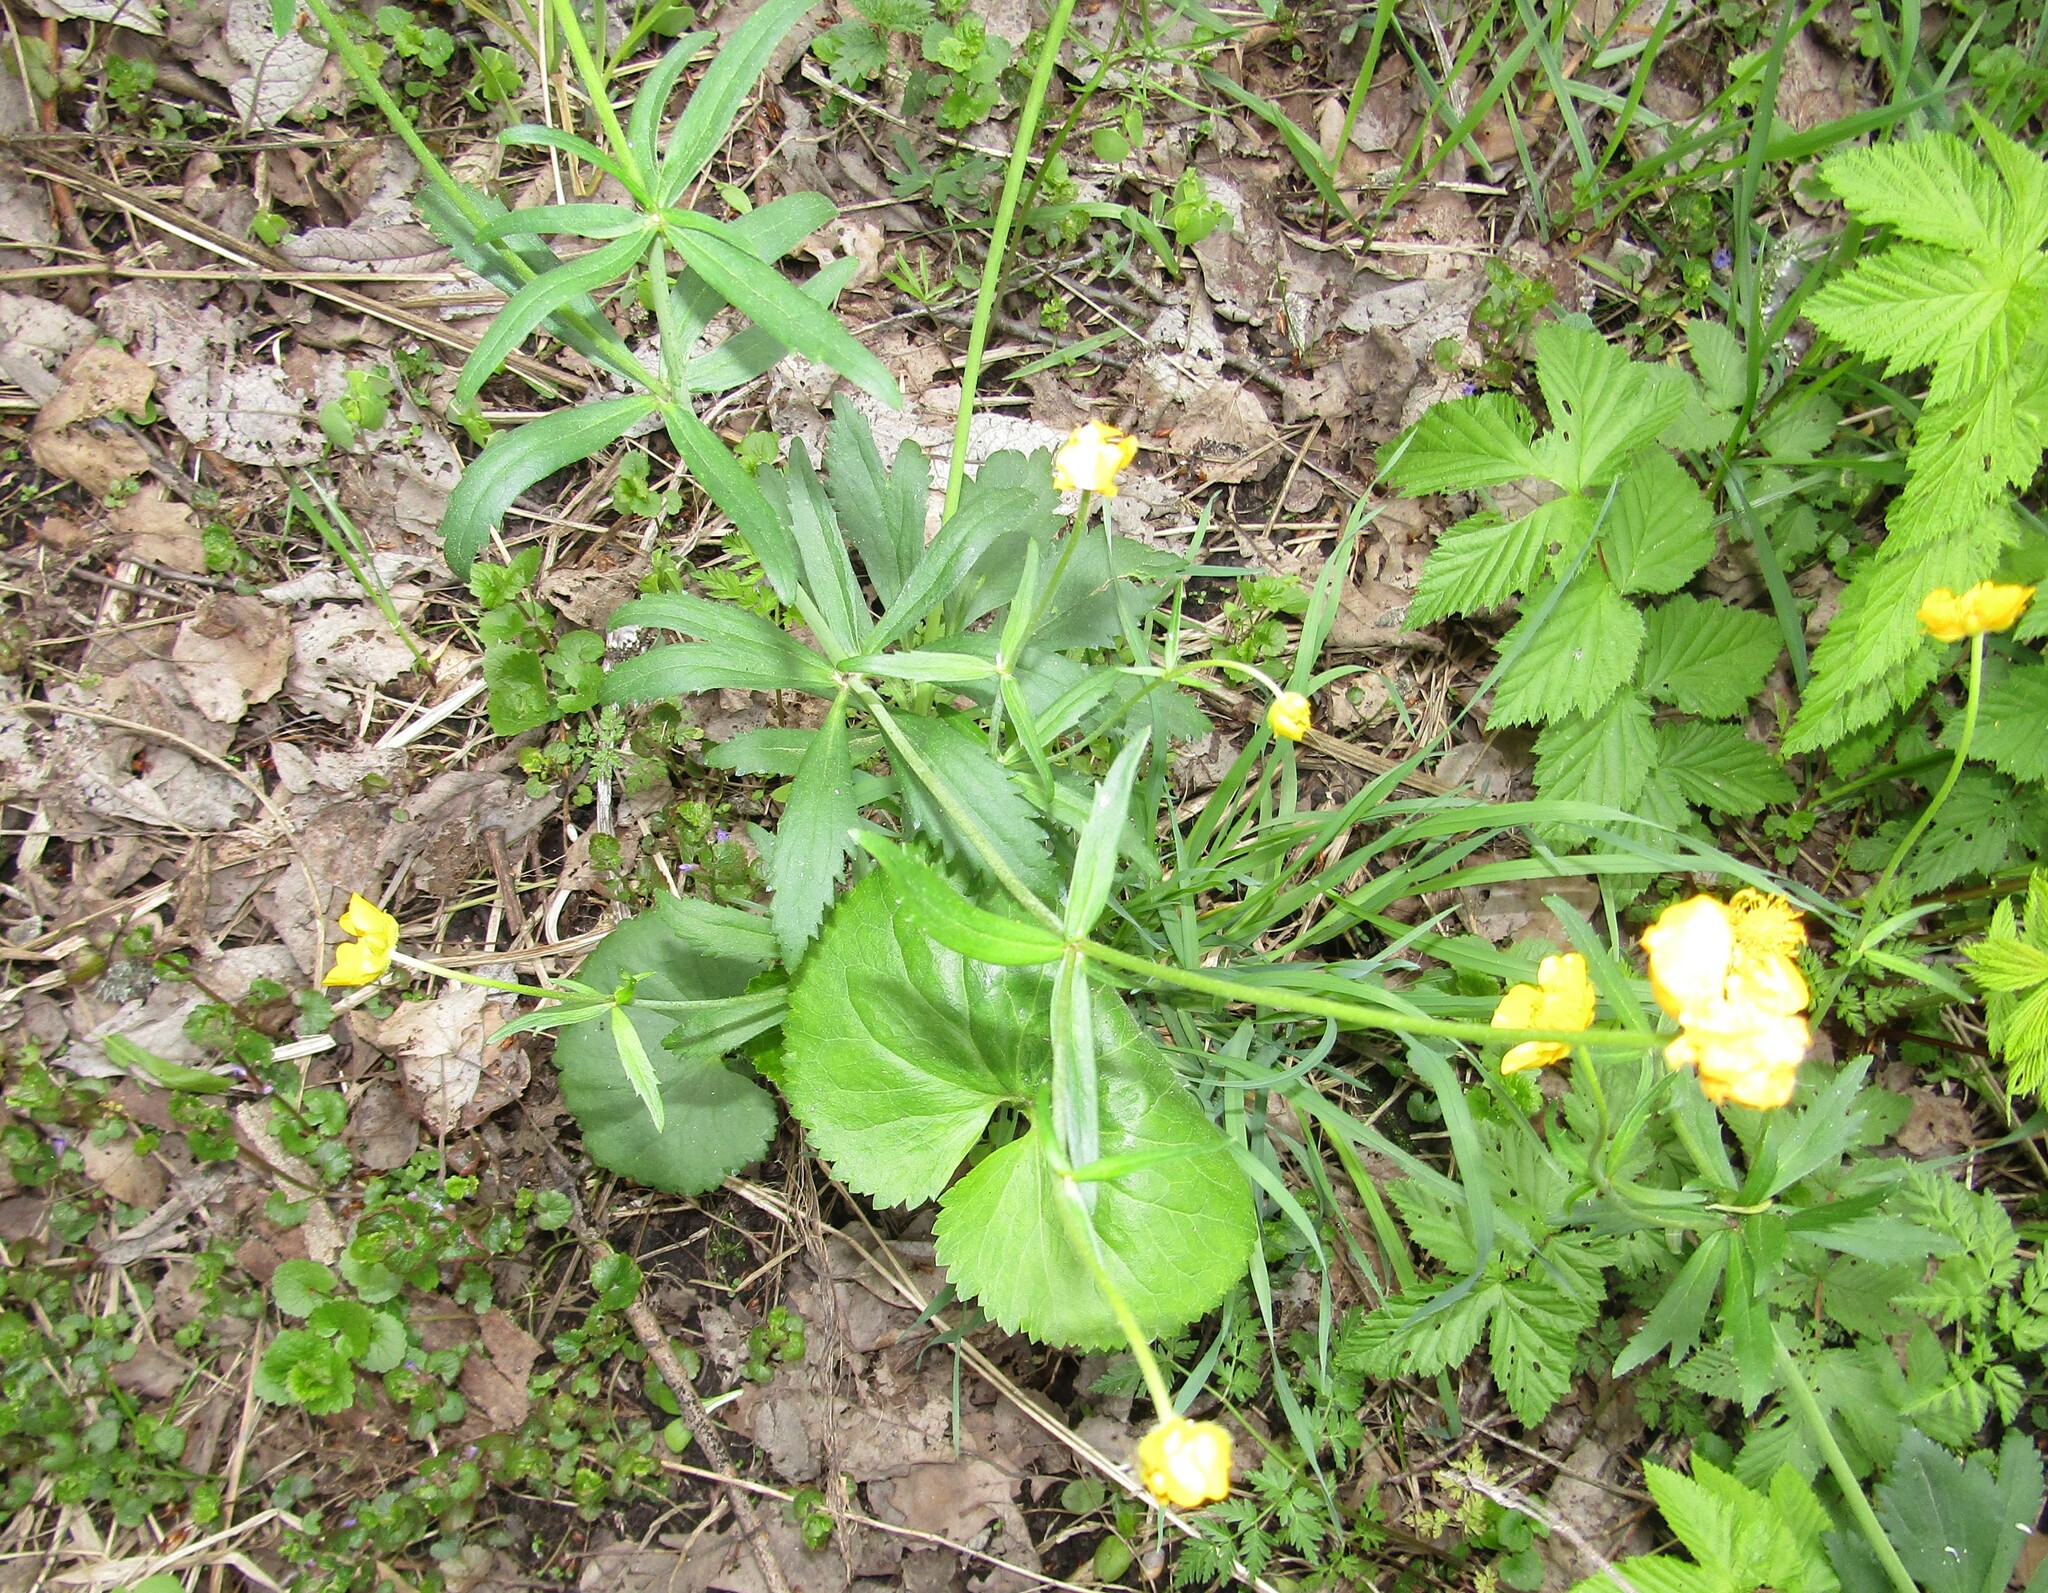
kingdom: Plantae
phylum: Tracheophyta
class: Magnoliopsida
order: Ranunculales
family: Ranunculaceae
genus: Ranunculus
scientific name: Ranunculus cassubicus
